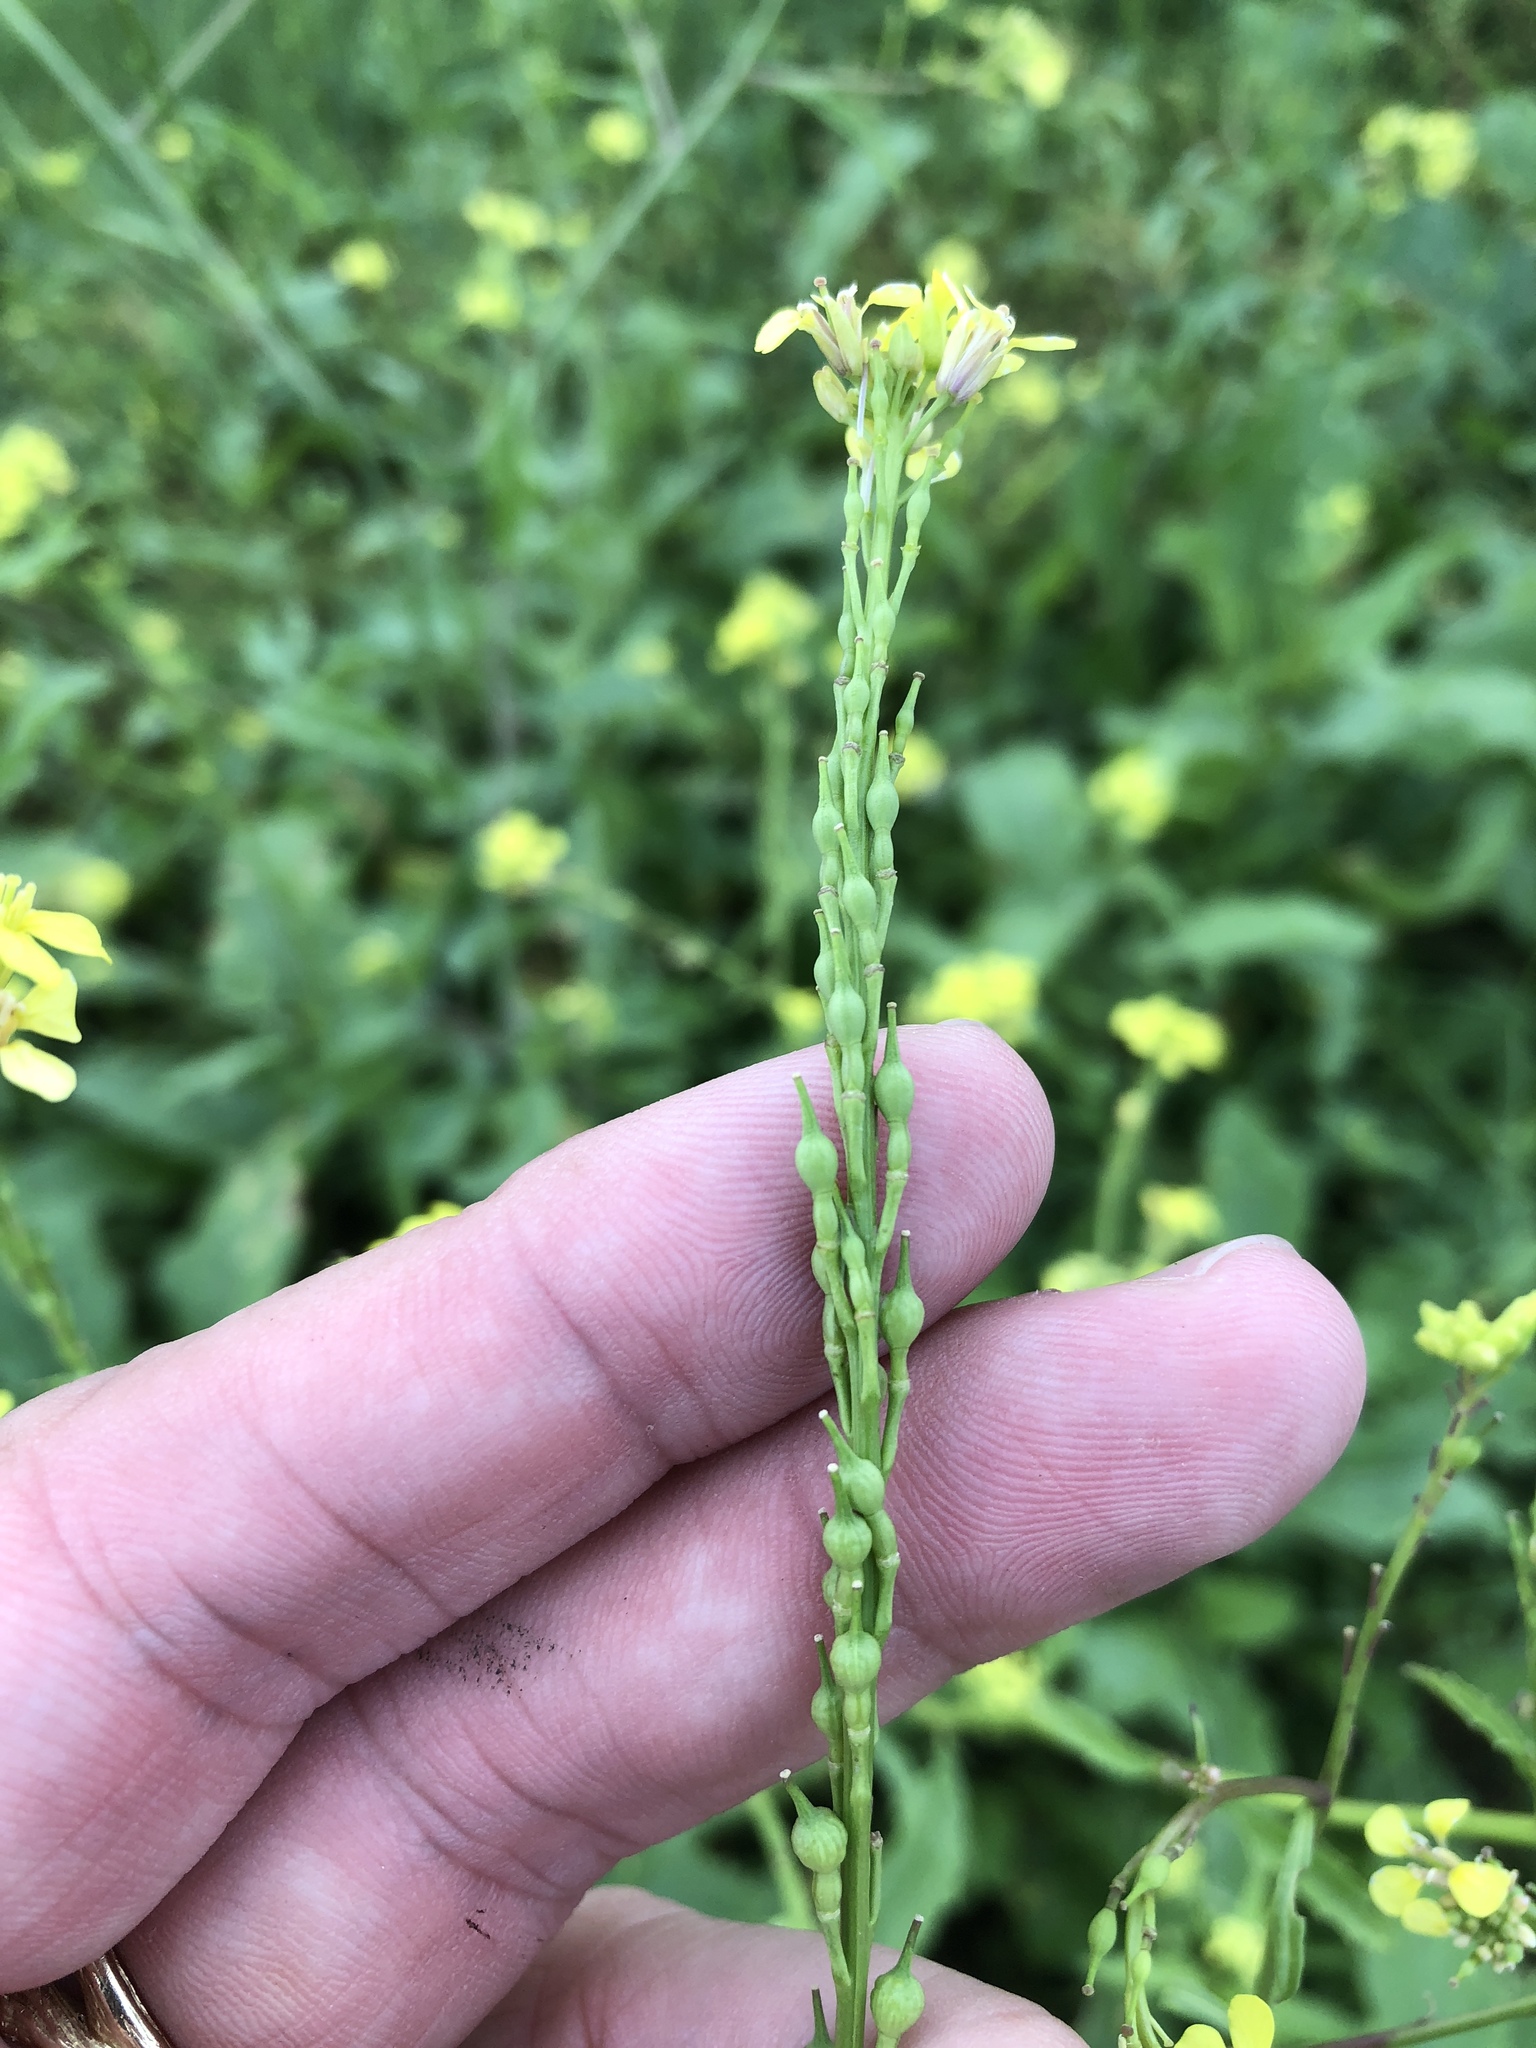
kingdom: Plantae
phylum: Tracheophyta
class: Magnoliopsida
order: Brassicales
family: Brassicaceae
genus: Rapistrum
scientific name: Rapistrum rugosum
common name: Annual bastardcabbage
